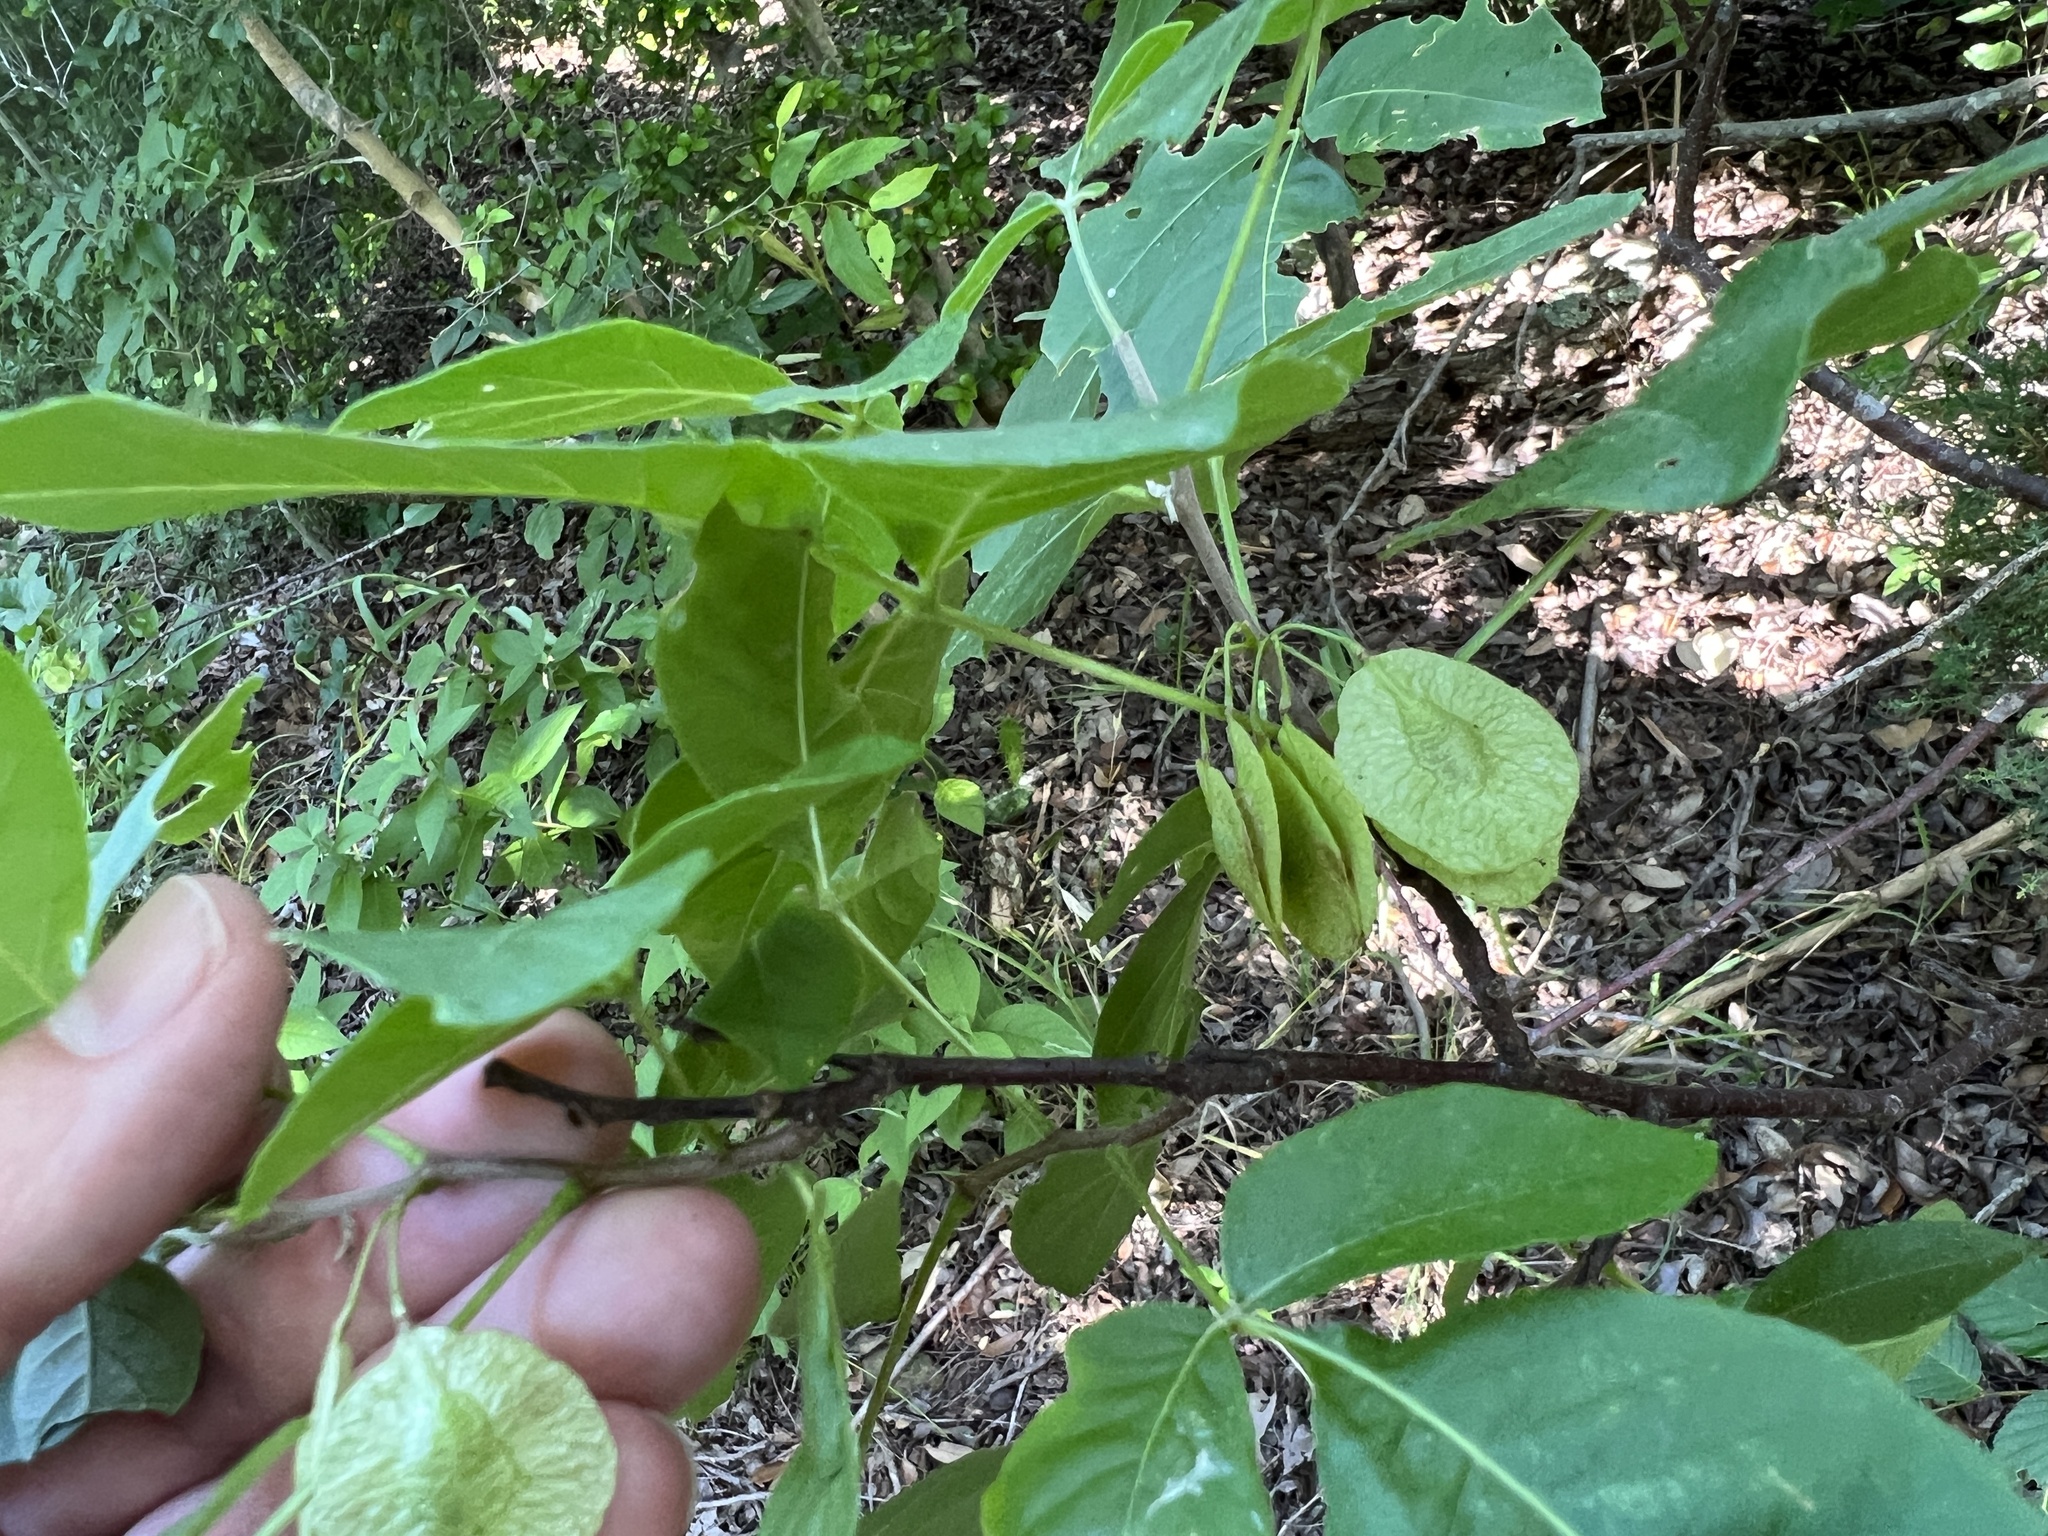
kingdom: Plantae
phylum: Tracheophyta
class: Magnoliopsida
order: Sapindales
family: Rutaceae
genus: Ptelea
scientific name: Ptelea trifoliata
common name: Common hop-tree
